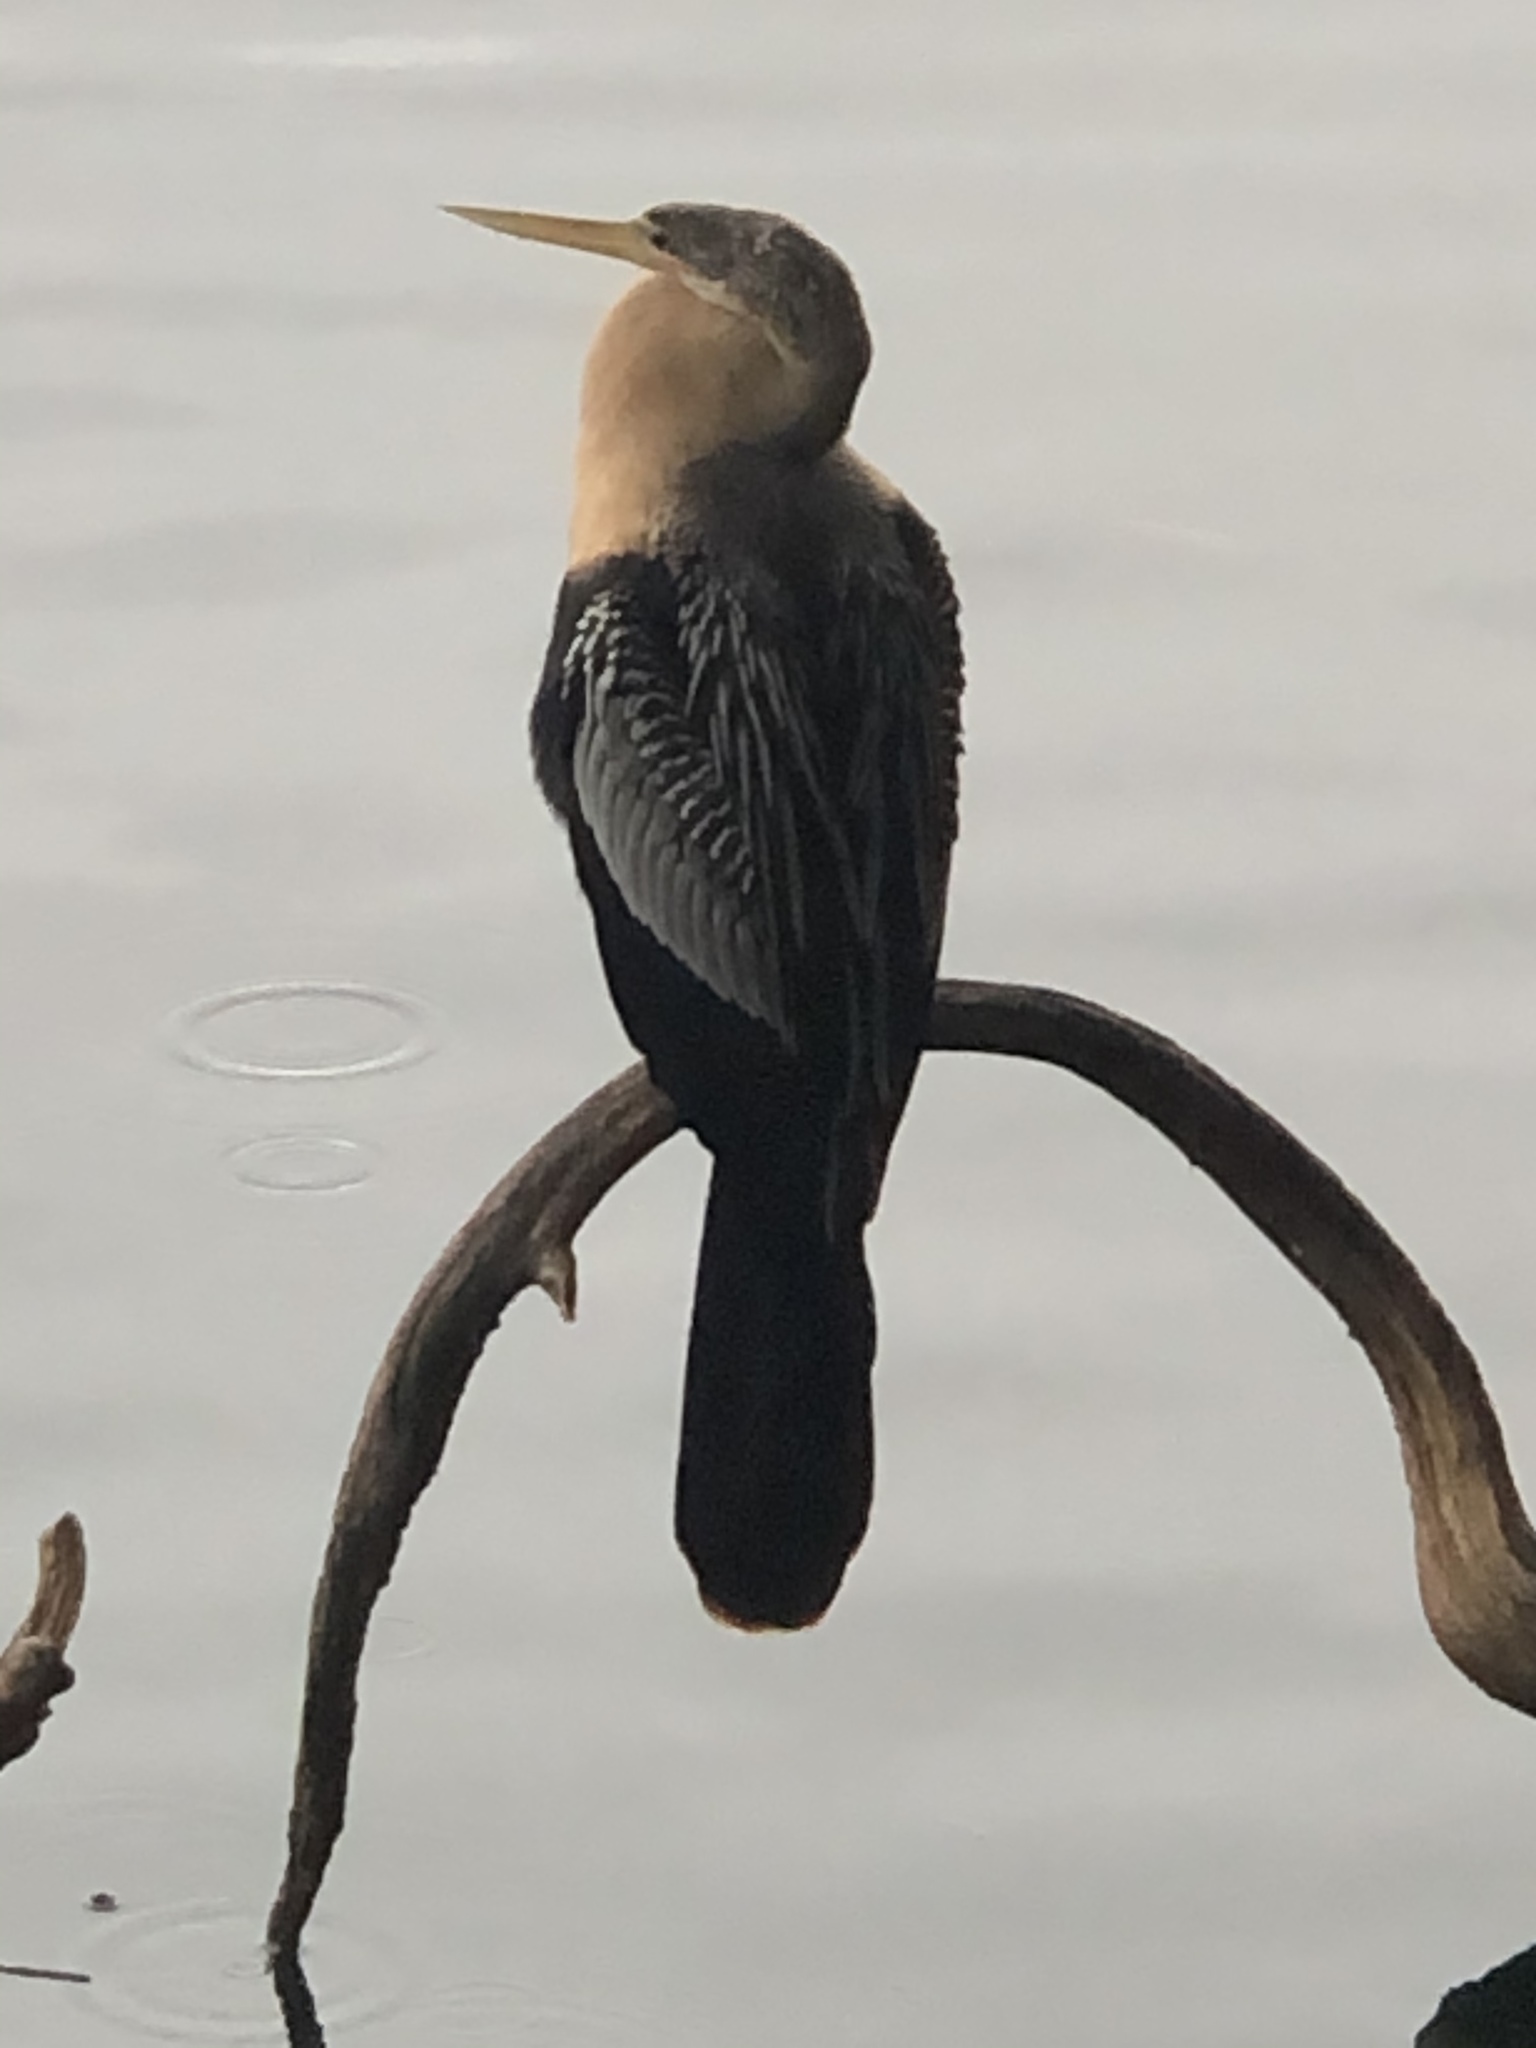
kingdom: Animalia
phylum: Chordata
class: Aves
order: Suliformes
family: Anhingidae
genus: Anhinga
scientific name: Anhinga anhinga
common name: Anhinga
